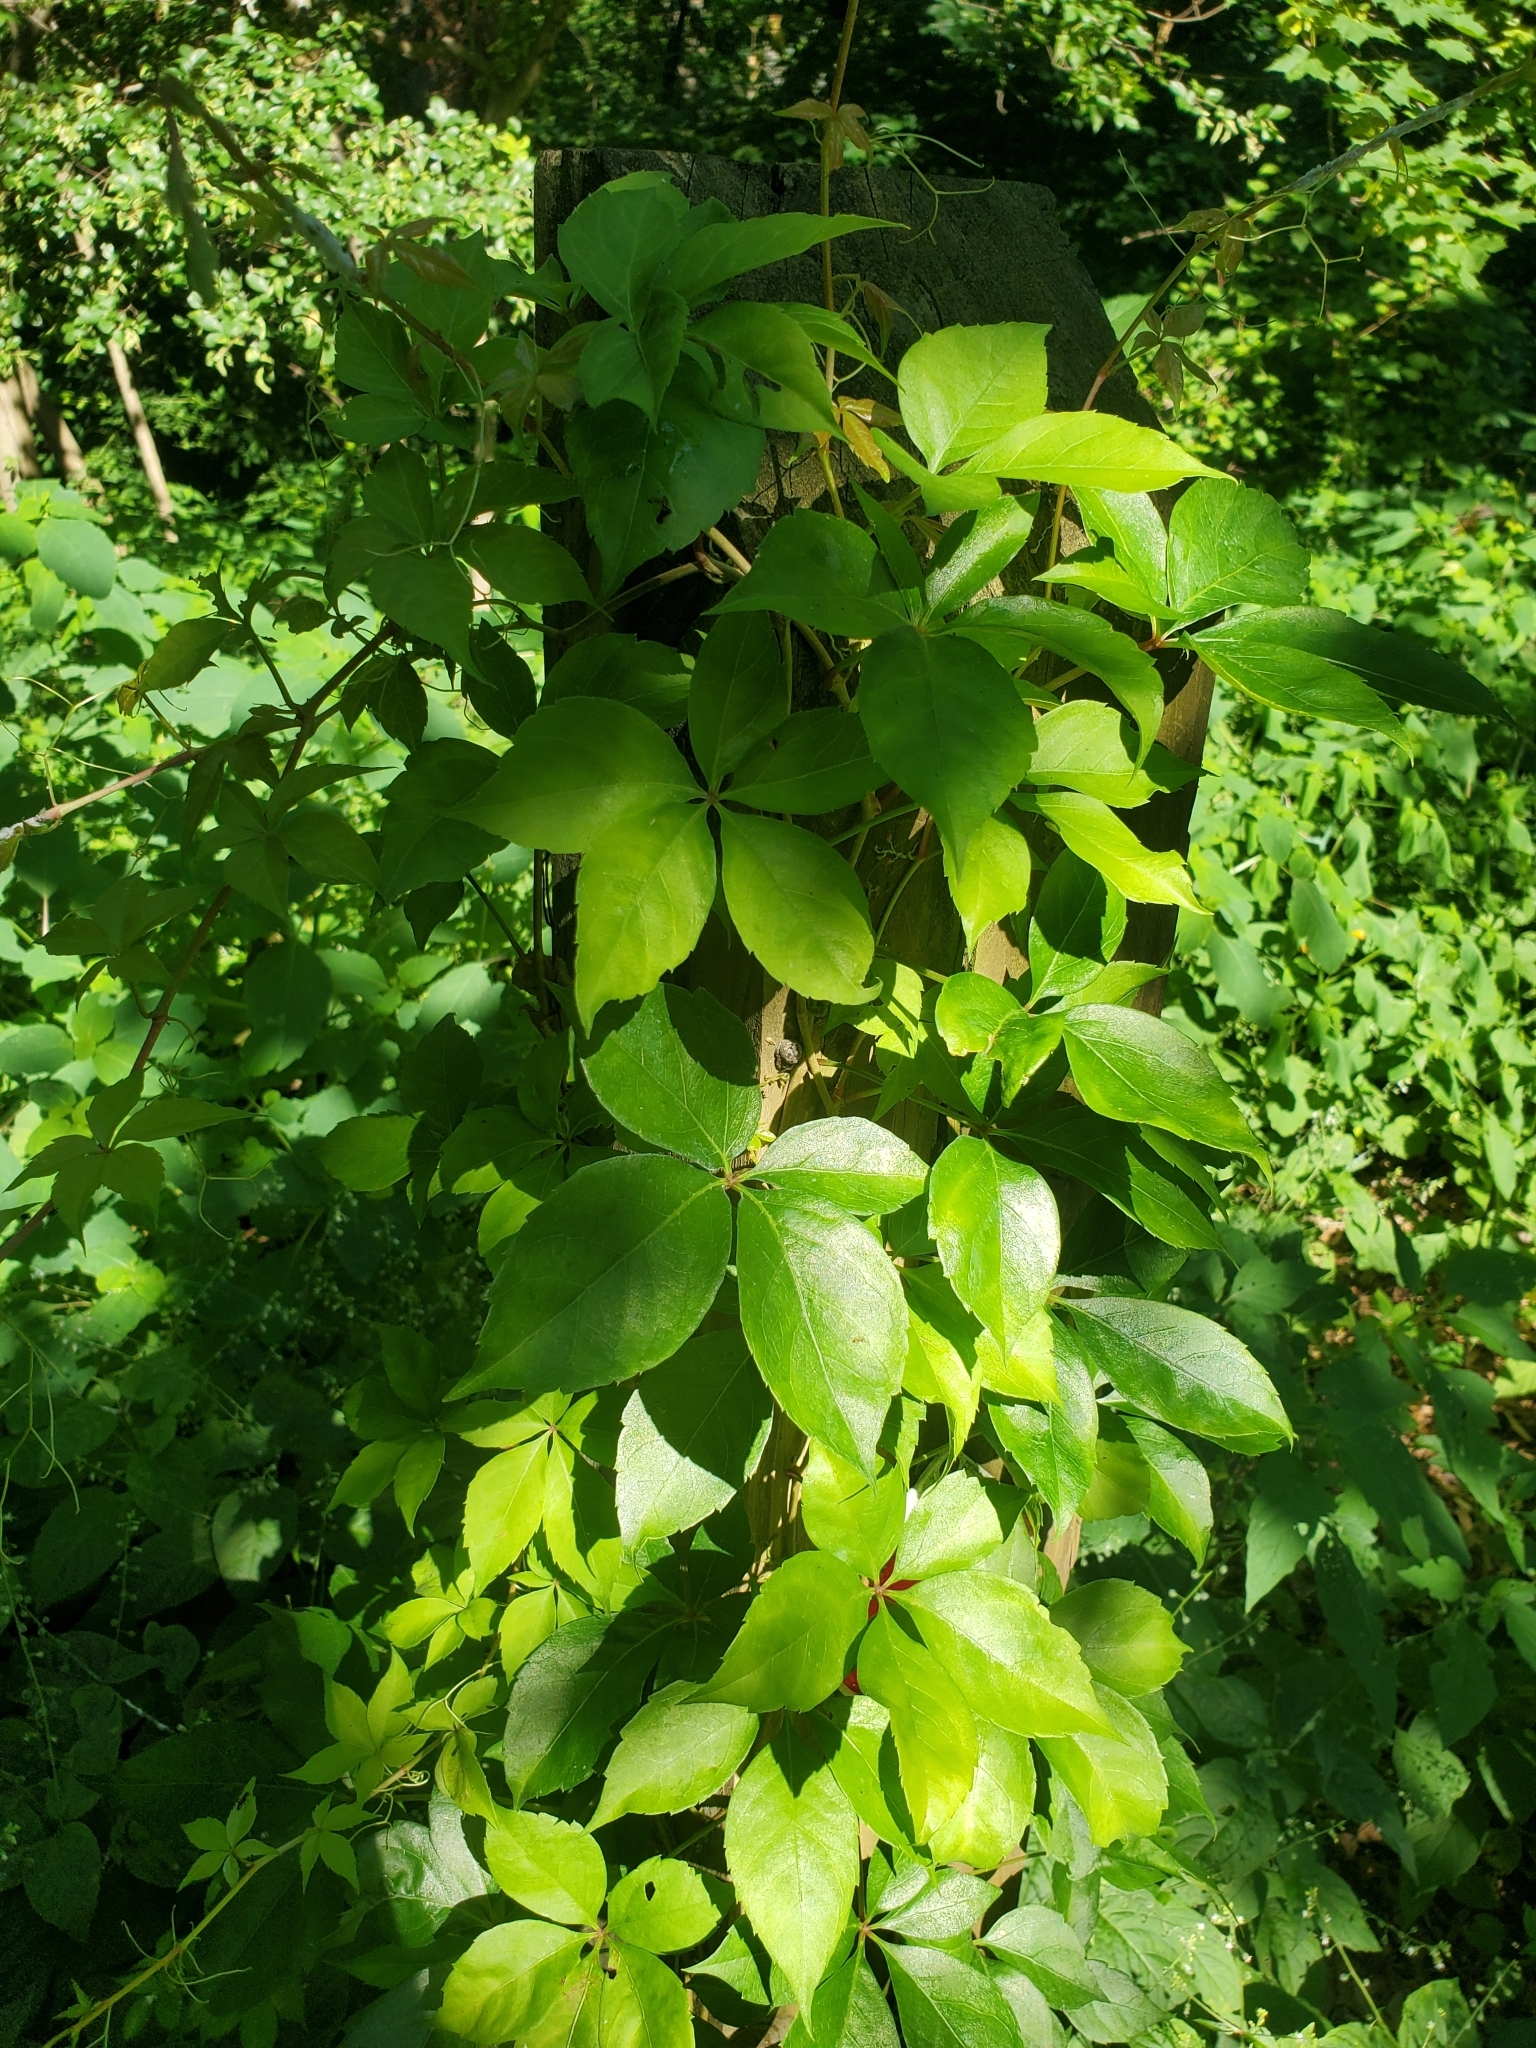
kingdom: Plantae
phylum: Tracheophyta
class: Magnoliopsida
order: Vitales
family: Vitaceae
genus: Parthenocissus
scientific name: Parthenocissus quinquefolia
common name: Virginia-creeper
